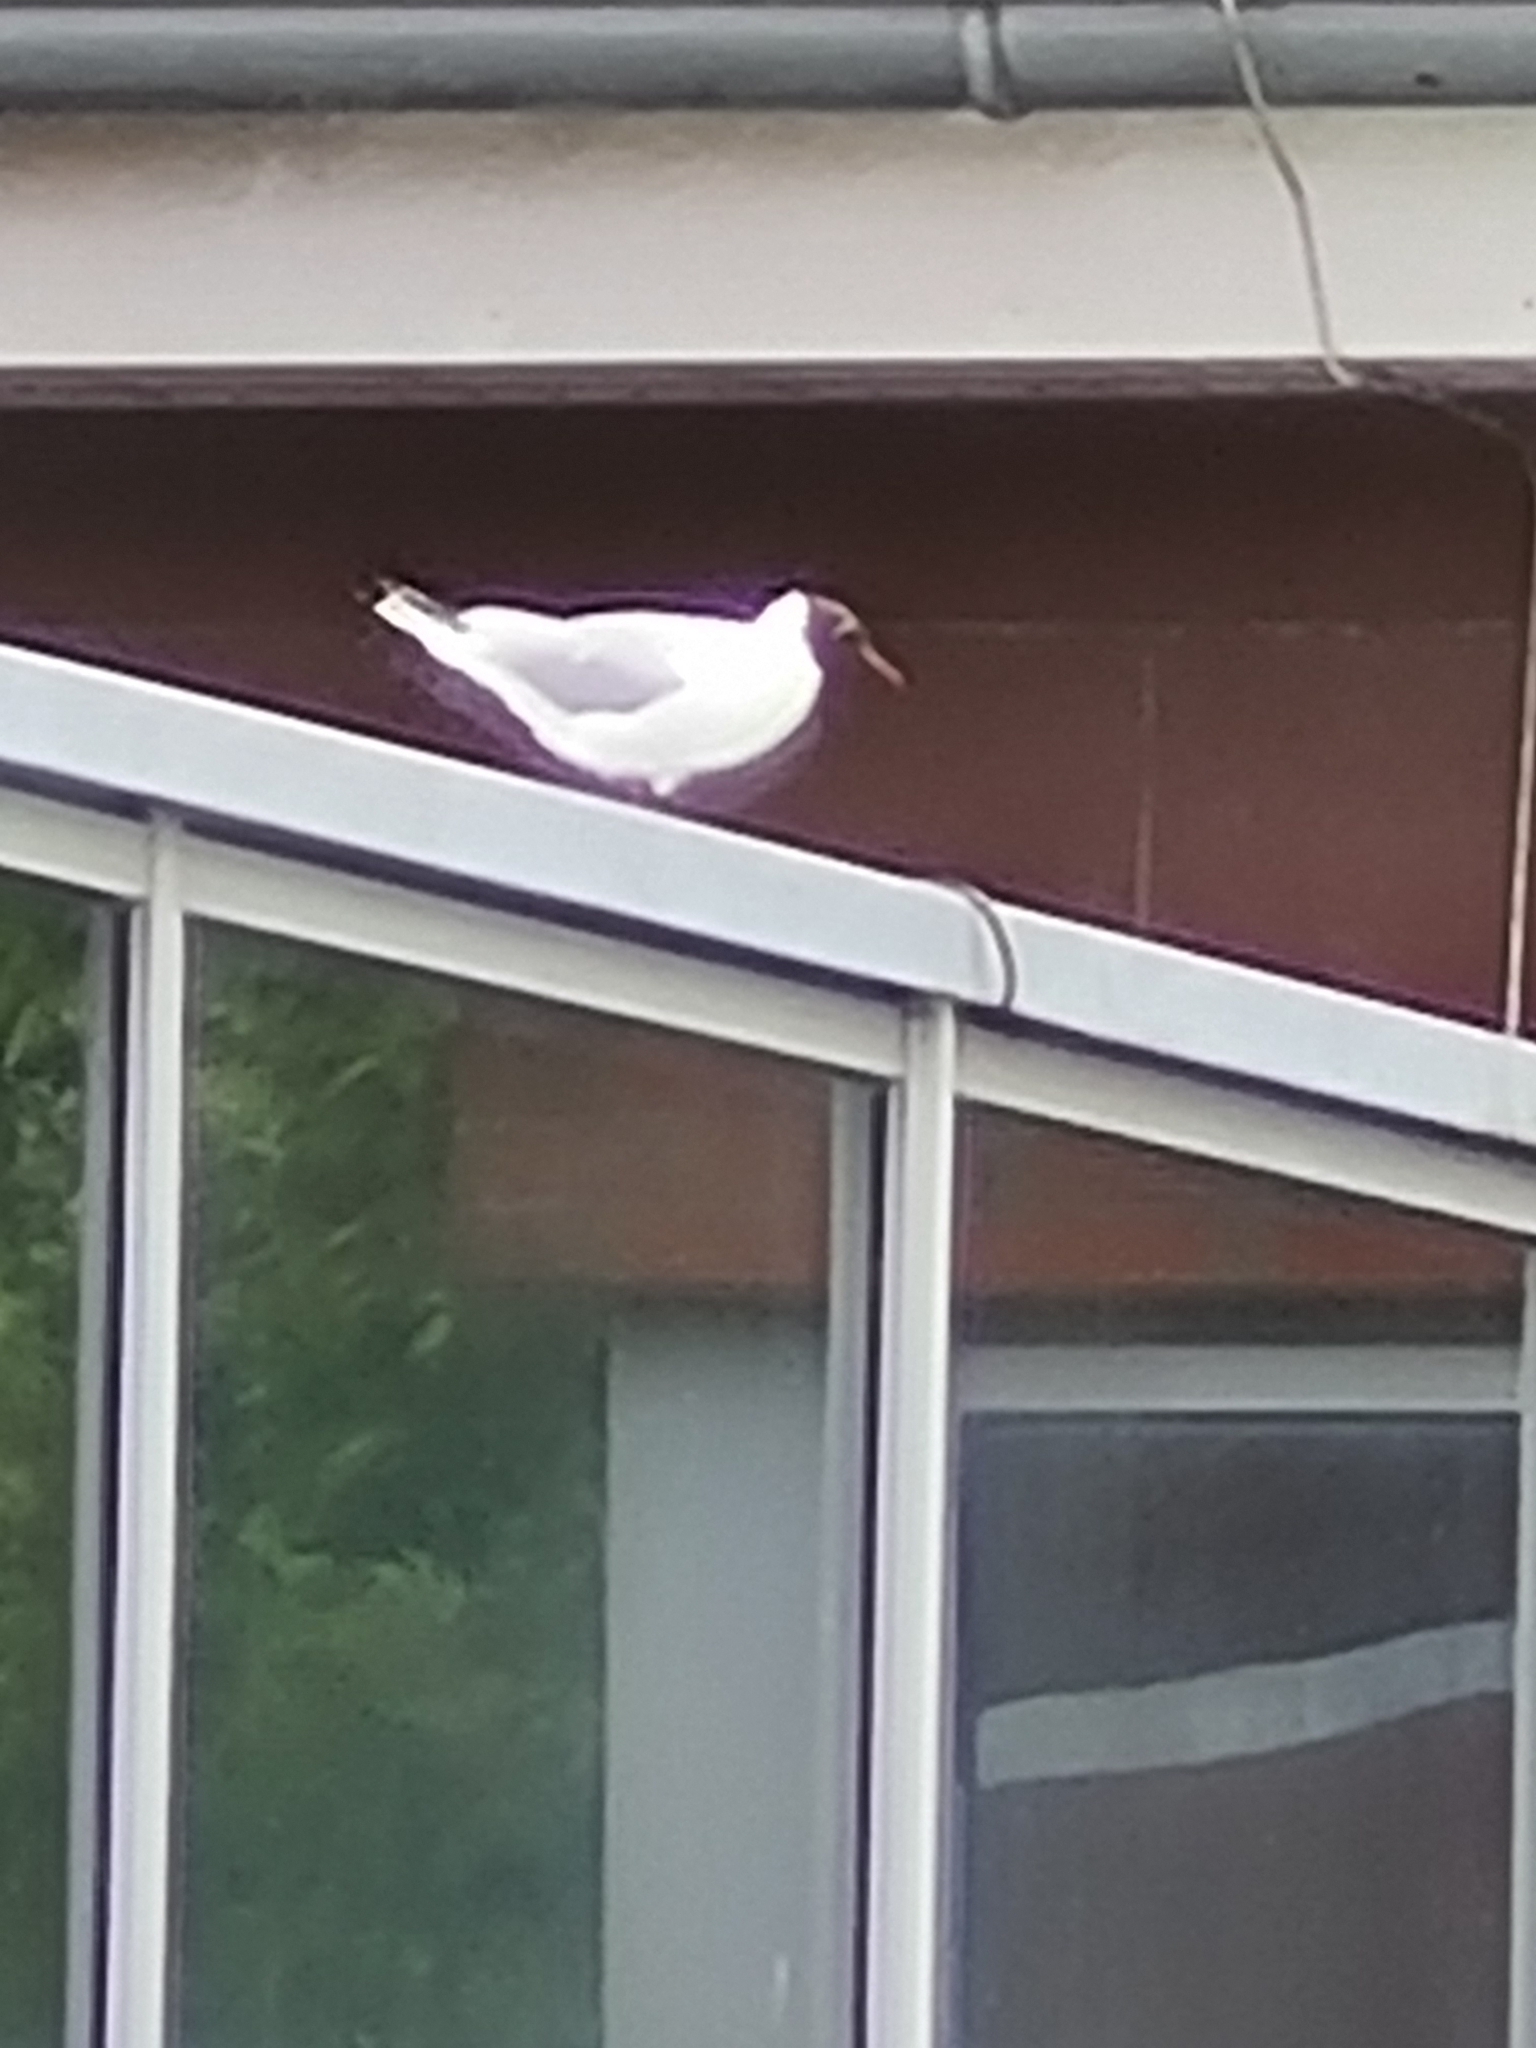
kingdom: Animalia
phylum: Chordata
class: Aves
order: Charadriiformes
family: Laridae
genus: Chroicocephalus
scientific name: Chroicocephalus ridibundus
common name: Black-headed gull
